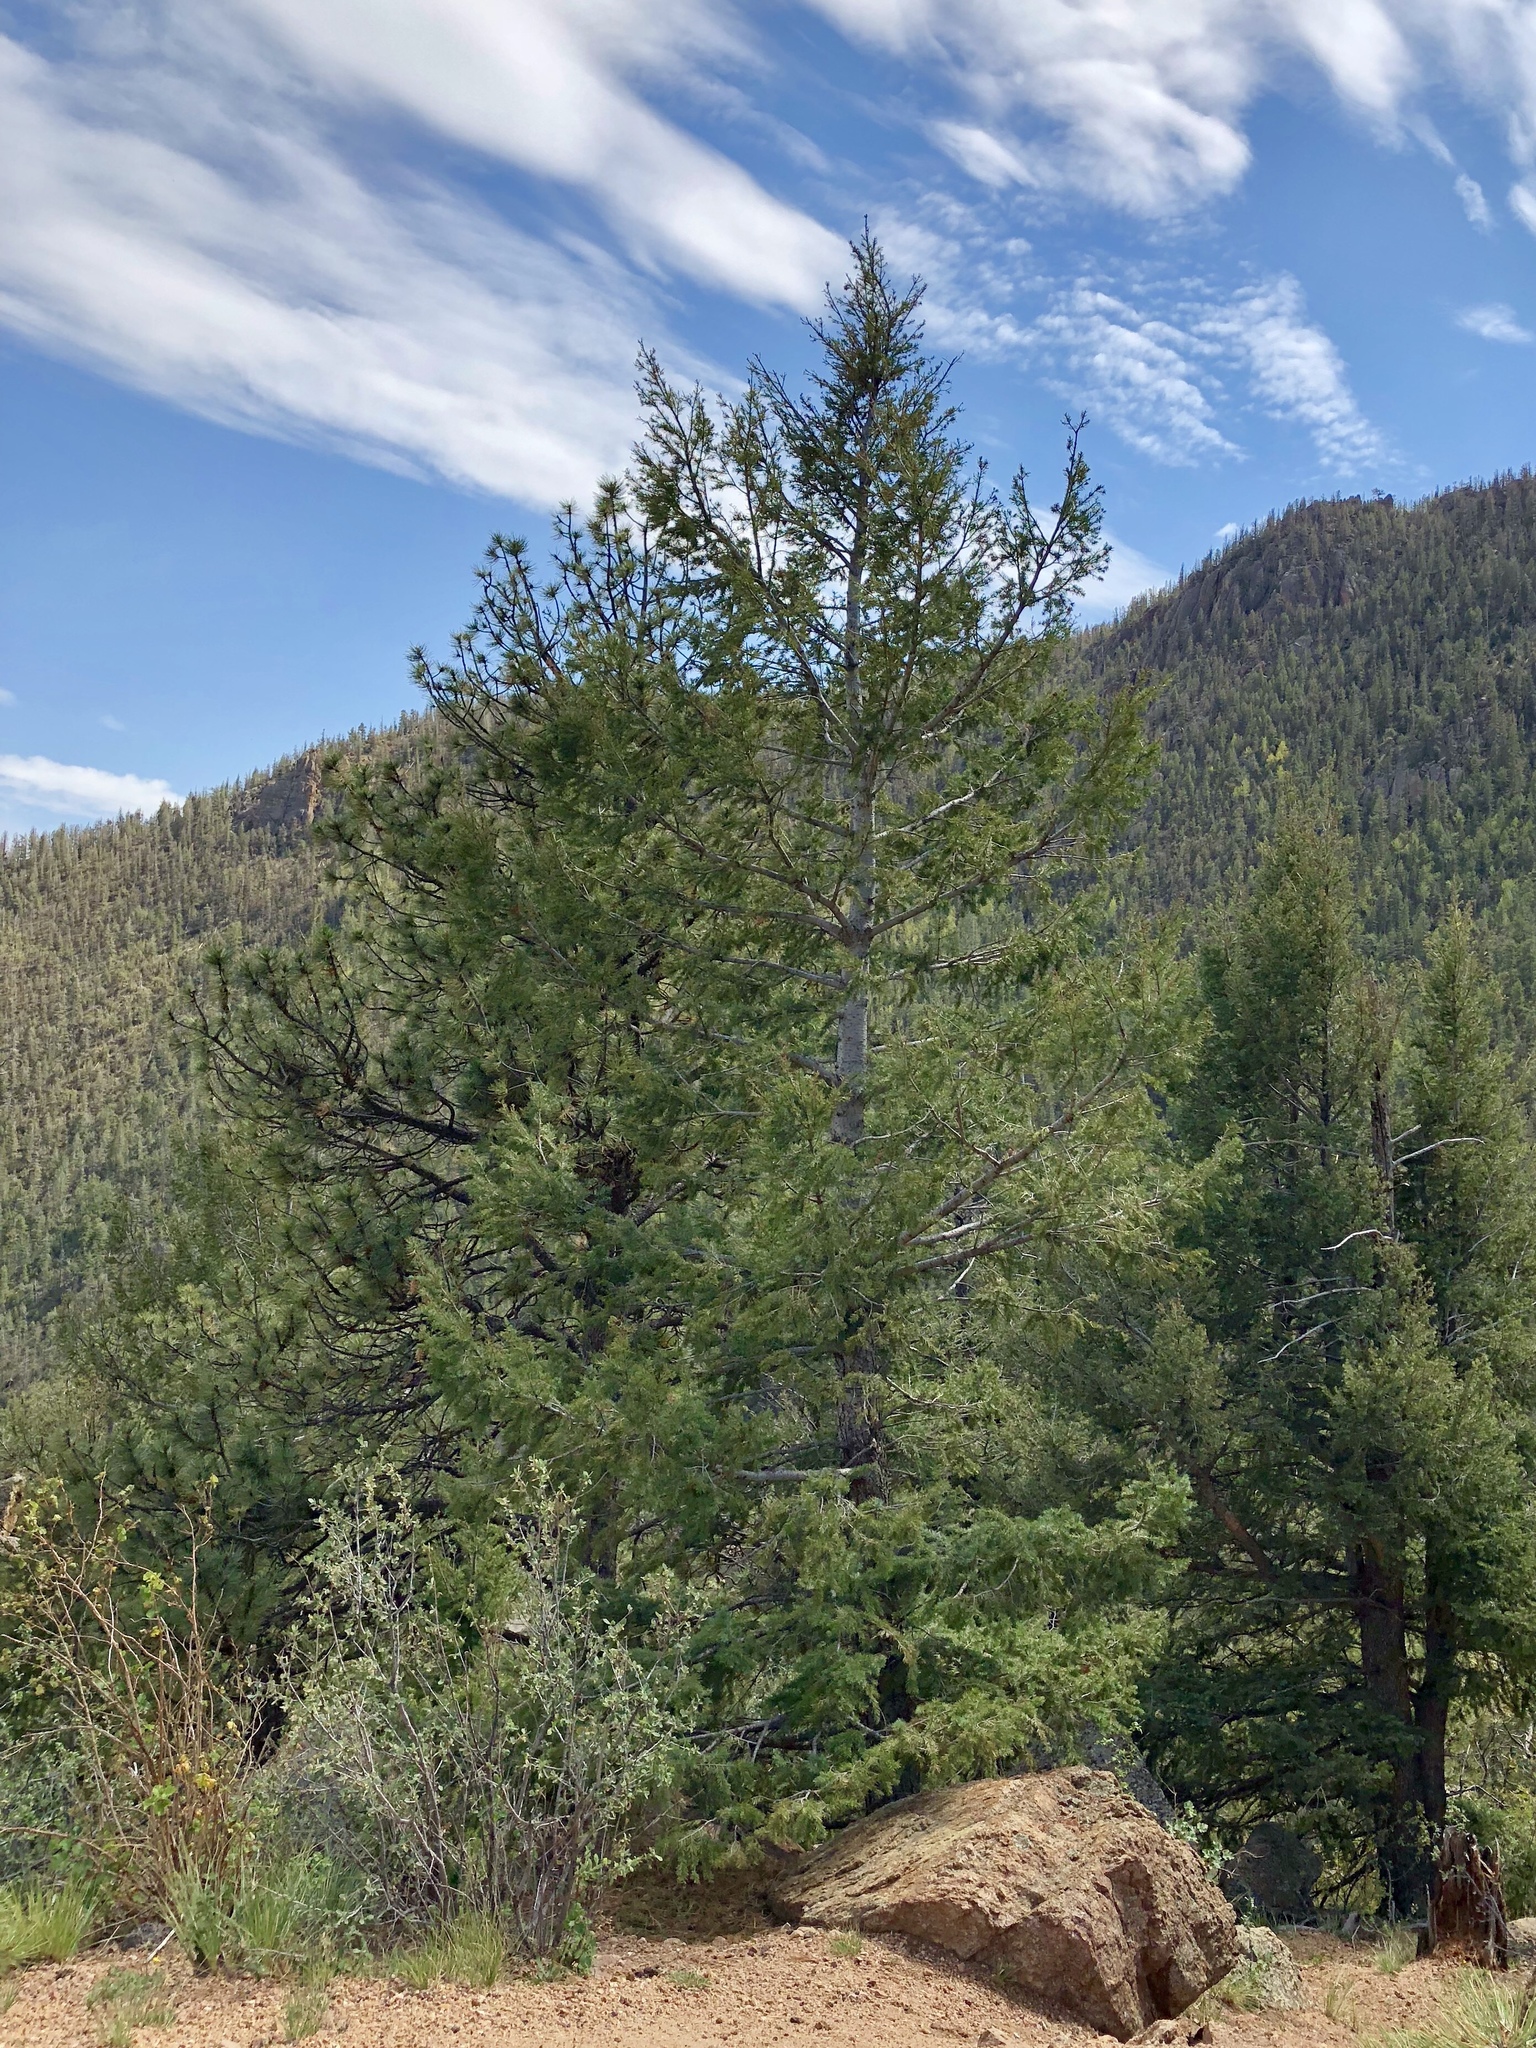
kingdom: Plantae
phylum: Tracheophyta
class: Pinopsida
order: Pinales
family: Pinaceae
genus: Pseudotsuga
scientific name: Pseudotsuga menziesii
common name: Douglas fir
